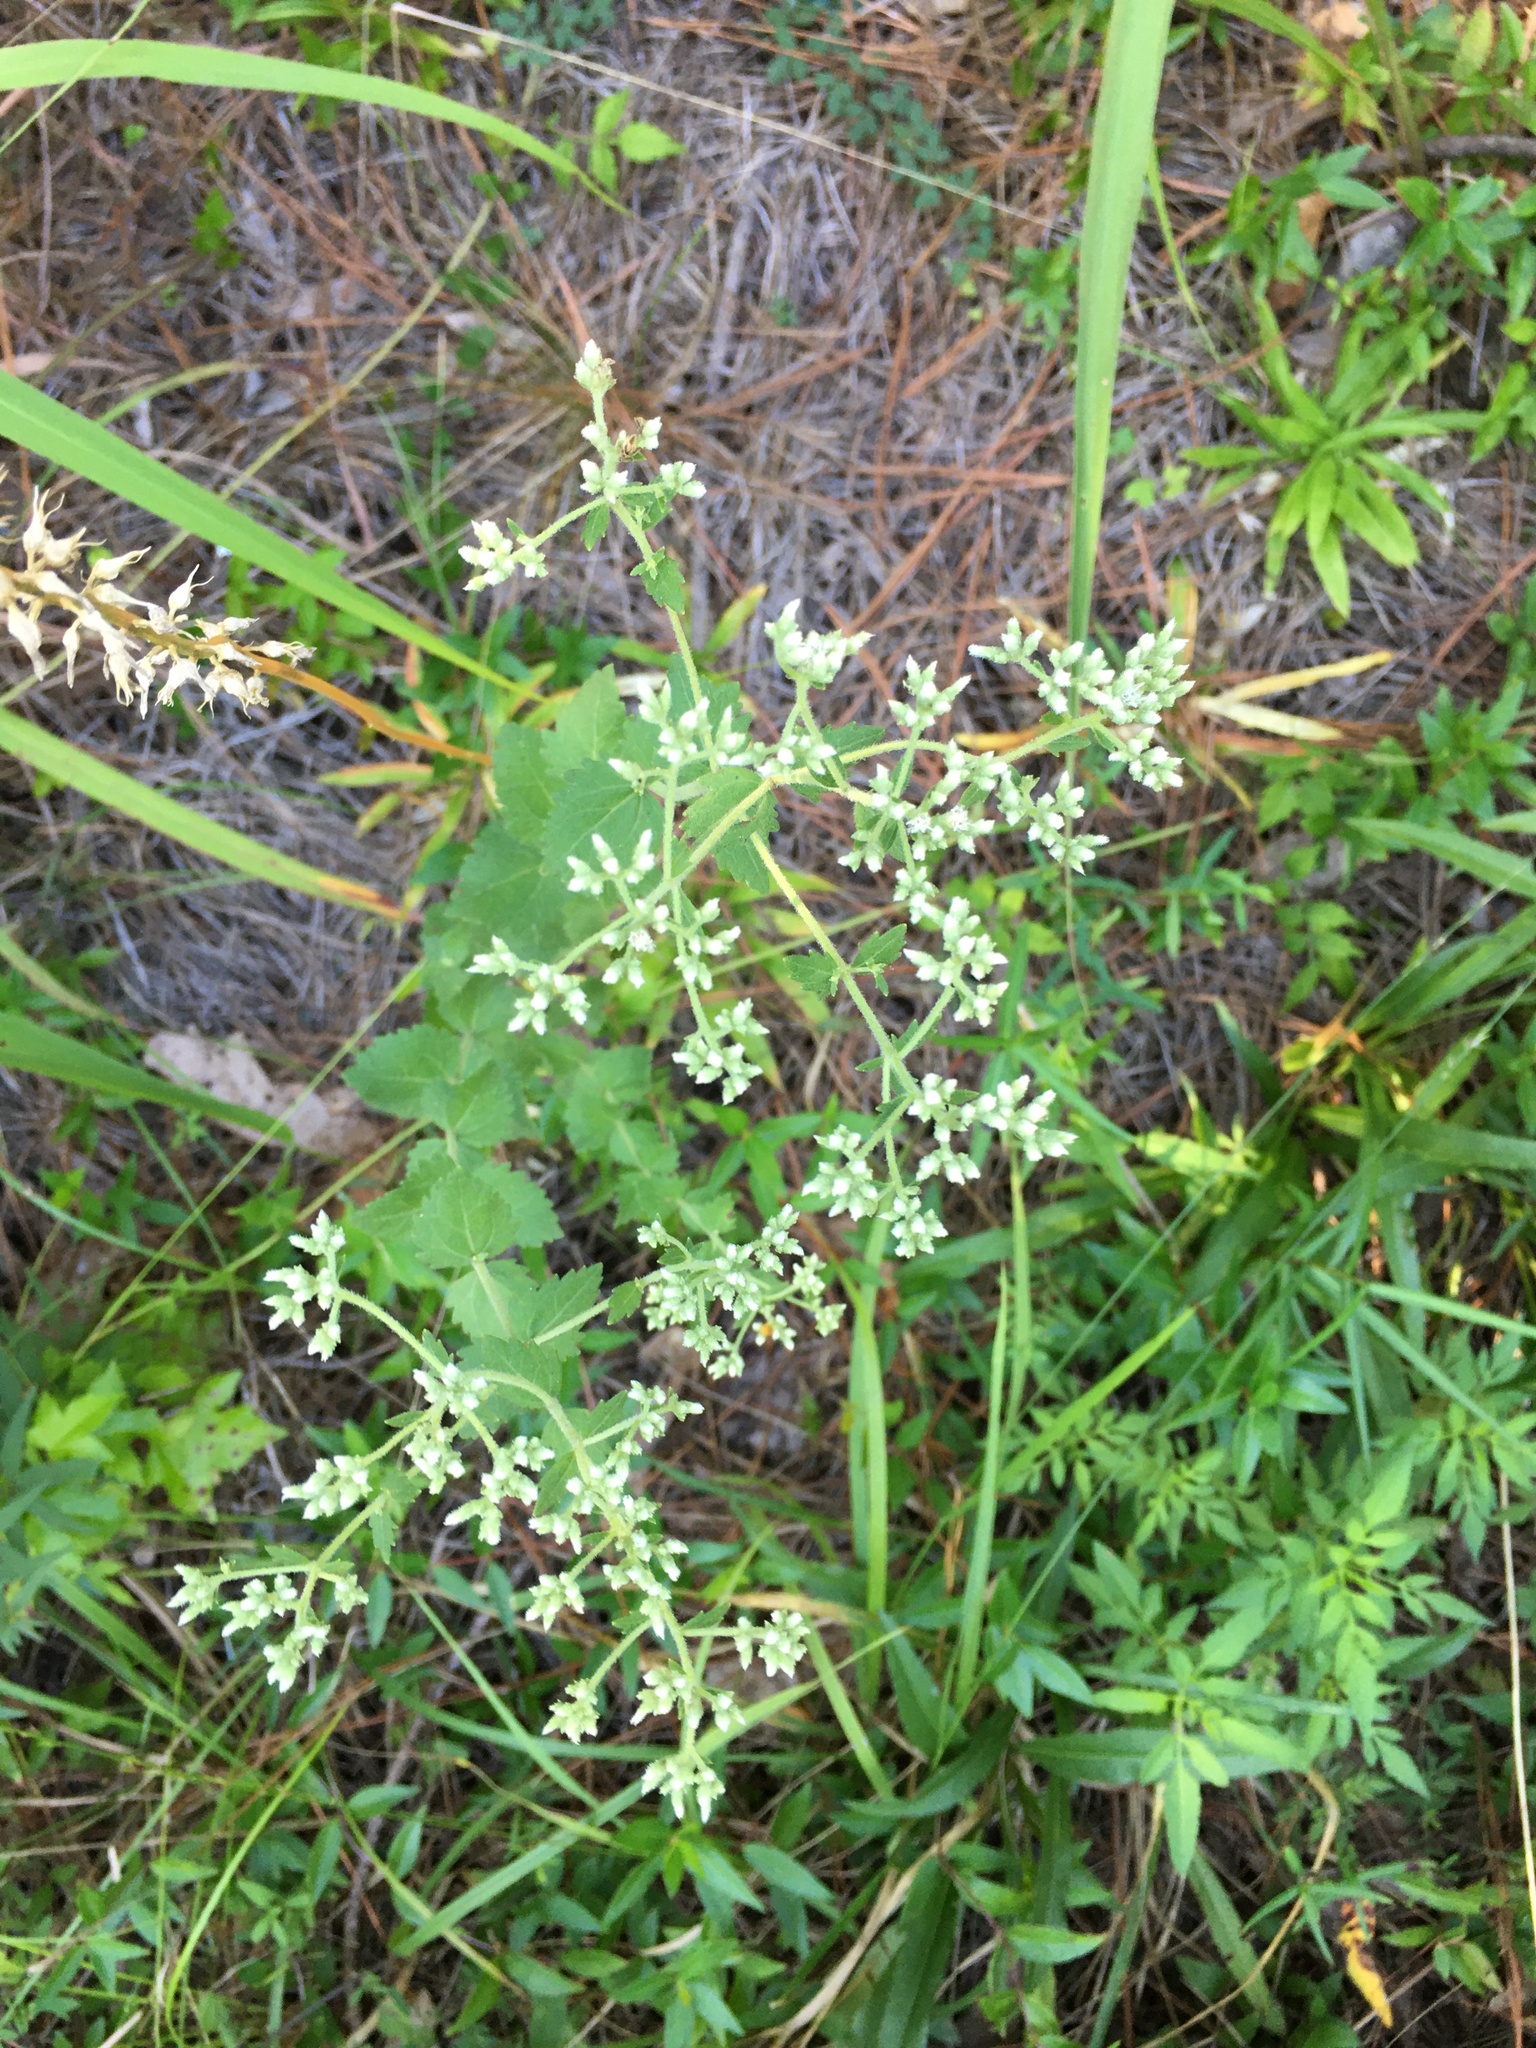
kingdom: Plantae
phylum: Tracheophyta
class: Magnoliopsida
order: Asterales
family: Asteraceae
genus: Eupatorium
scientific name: Eupatorium rotundifolium
